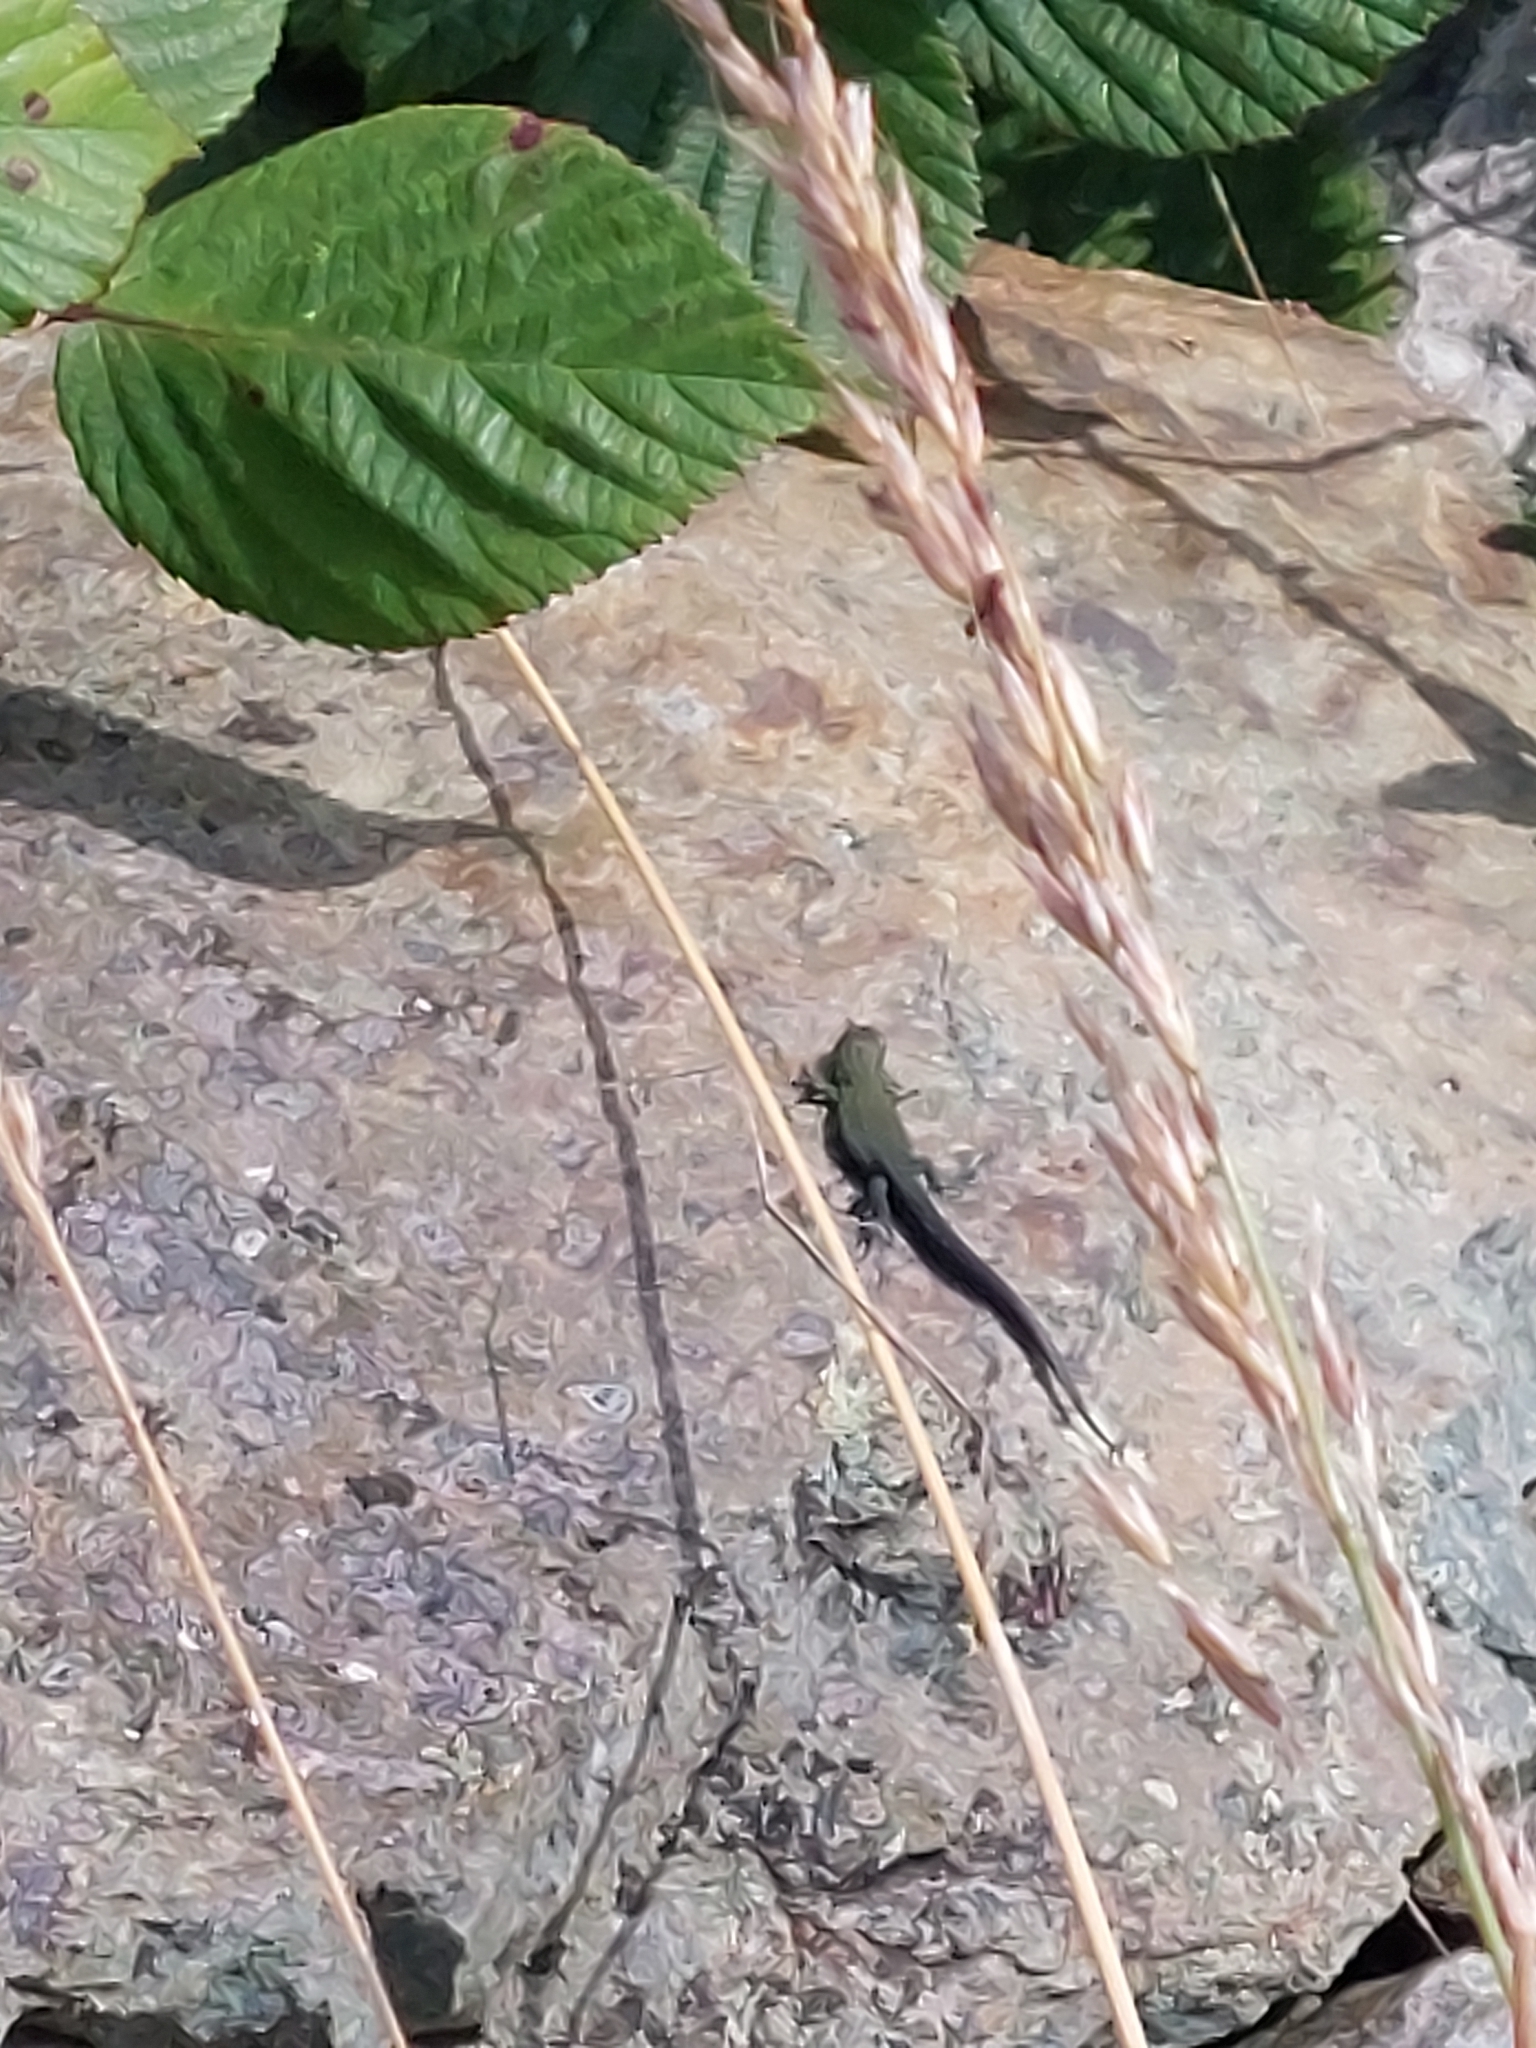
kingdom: Animalia
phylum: Chordata
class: Squamata
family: Lacertidae
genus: Zootoca
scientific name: Zootoca vivipara
